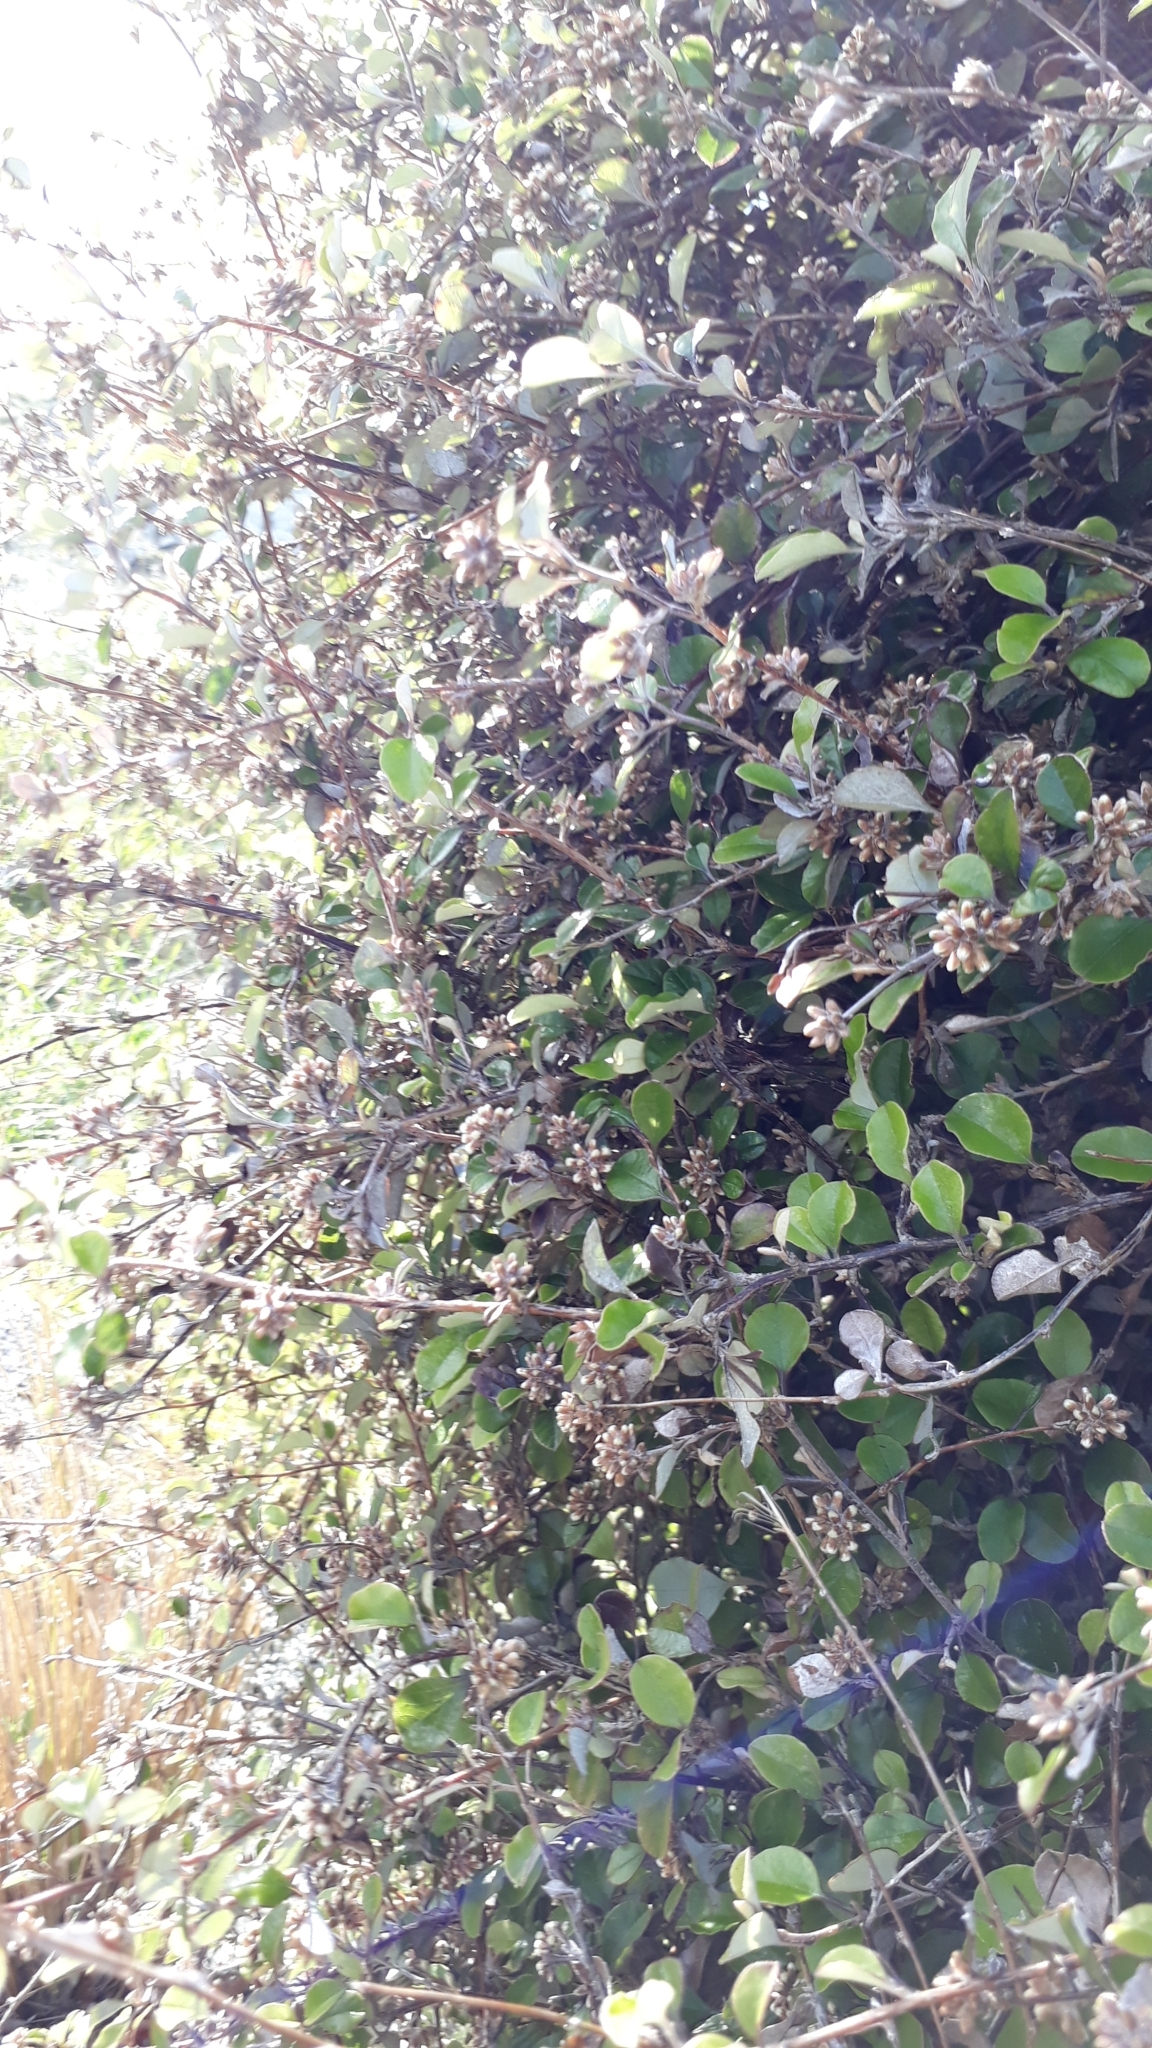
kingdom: Plantae
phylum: Tracheophyta
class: Magnoliopsida
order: Asterales
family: Asteraceae
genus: Ozothamnus
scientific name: Ozothamnus glomeratus
